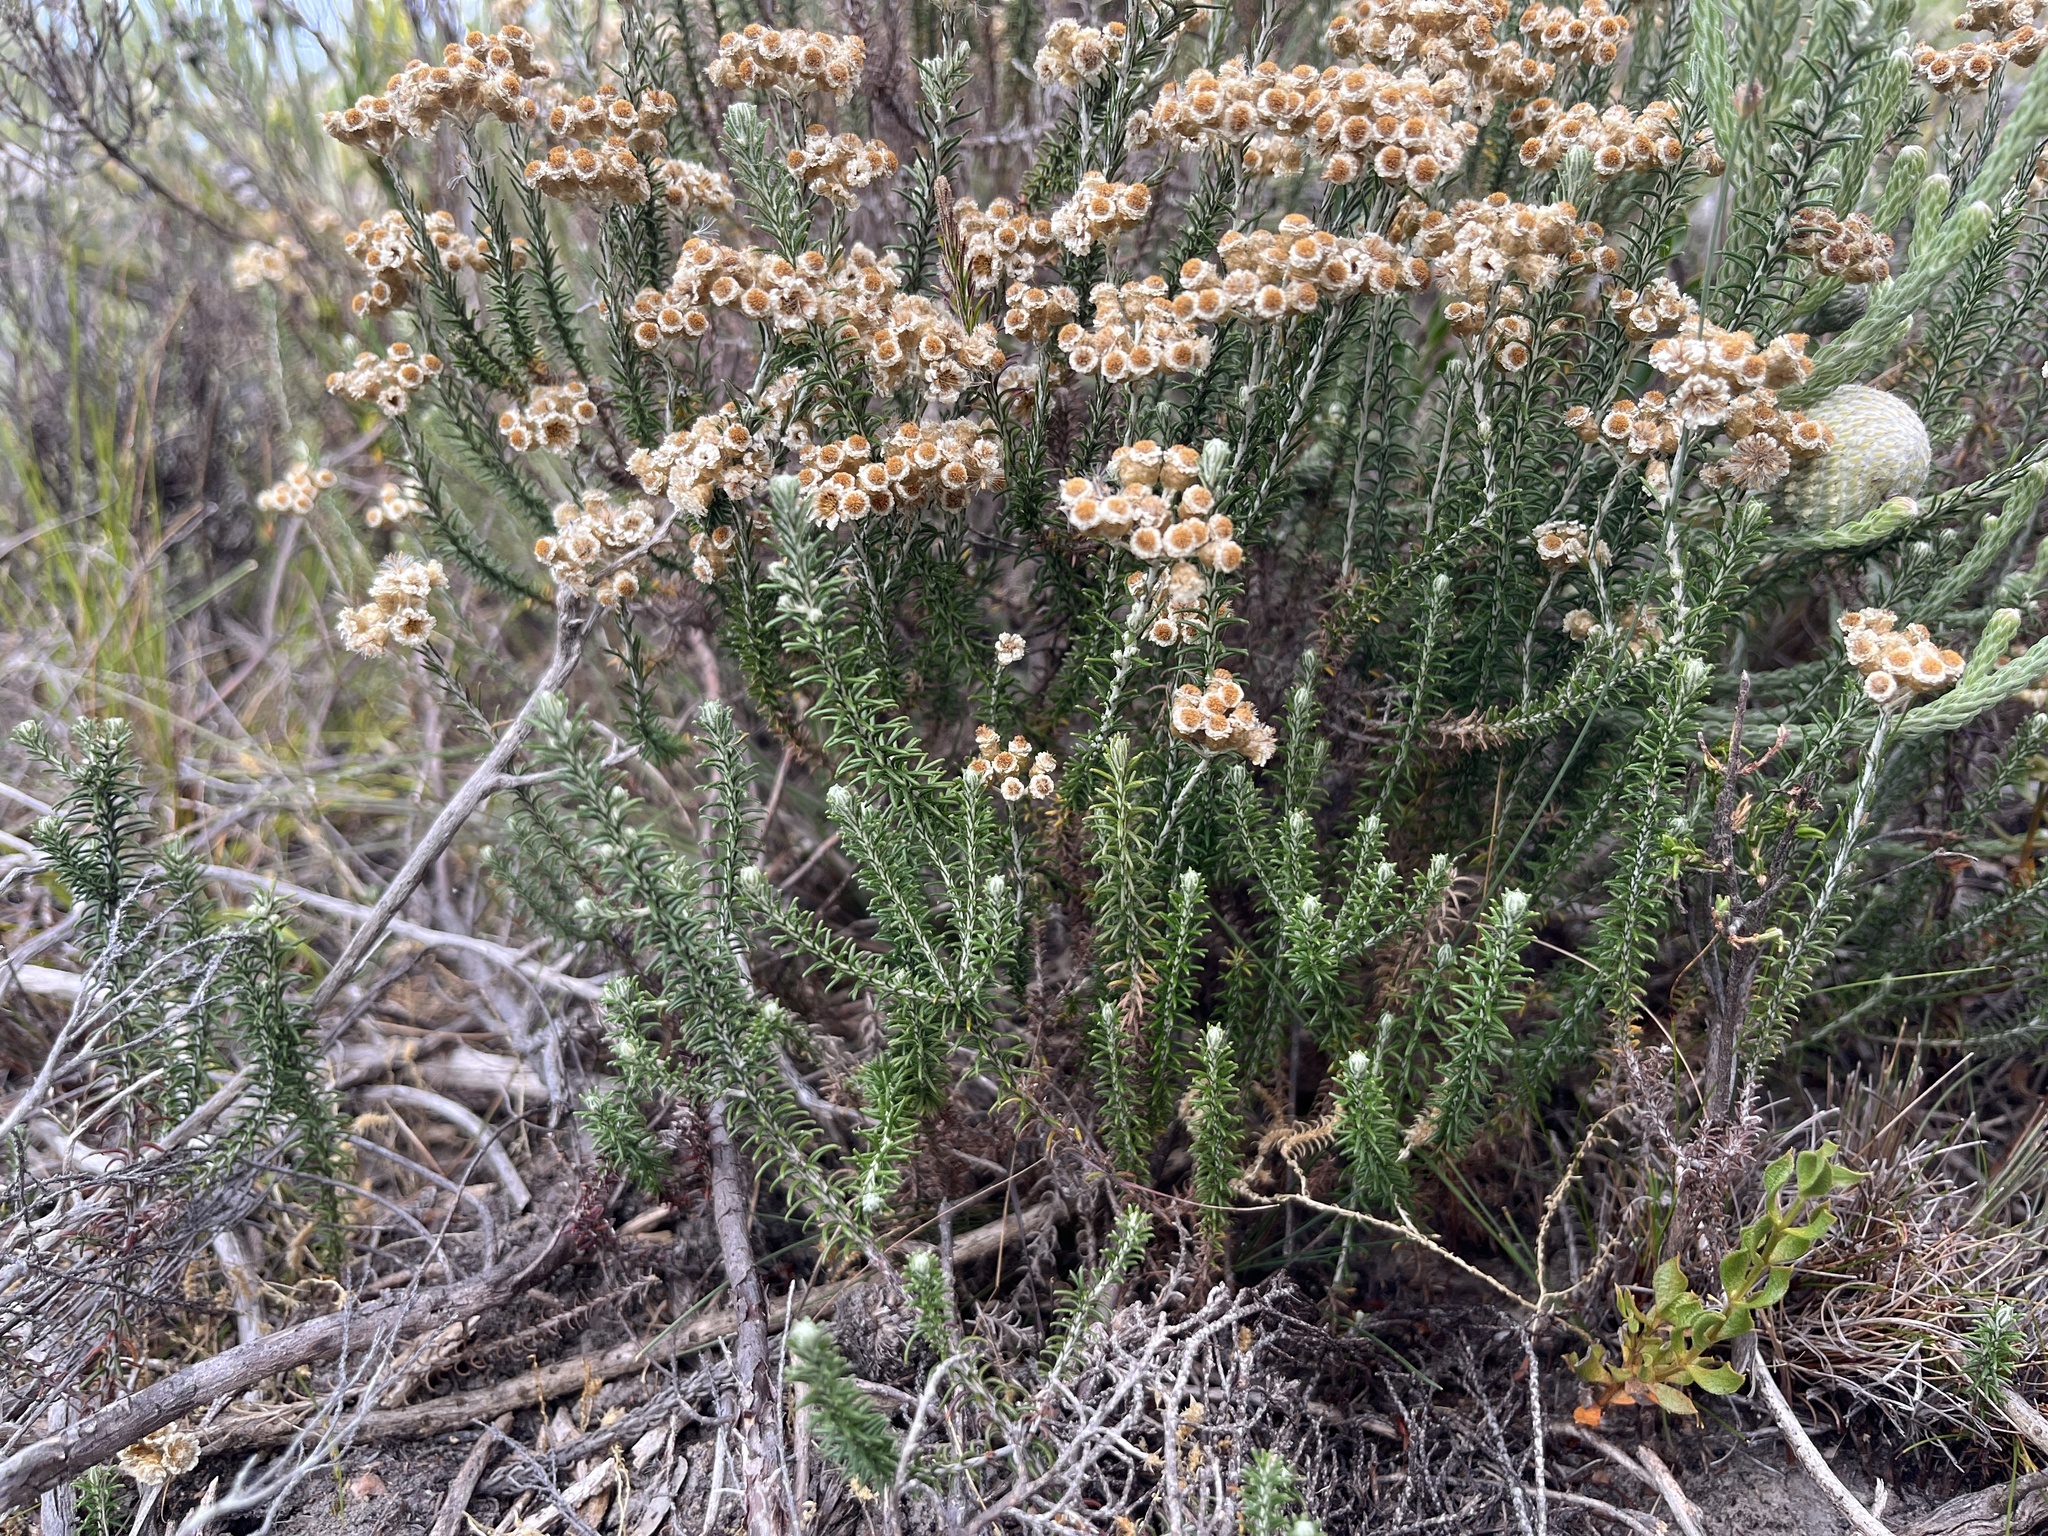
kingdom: Plantae
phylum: Tracheophyta
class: Magnoliopsida
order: Asterales
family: Asteraceae
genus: Helichrysum
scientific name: Helichrysum teretifolium
